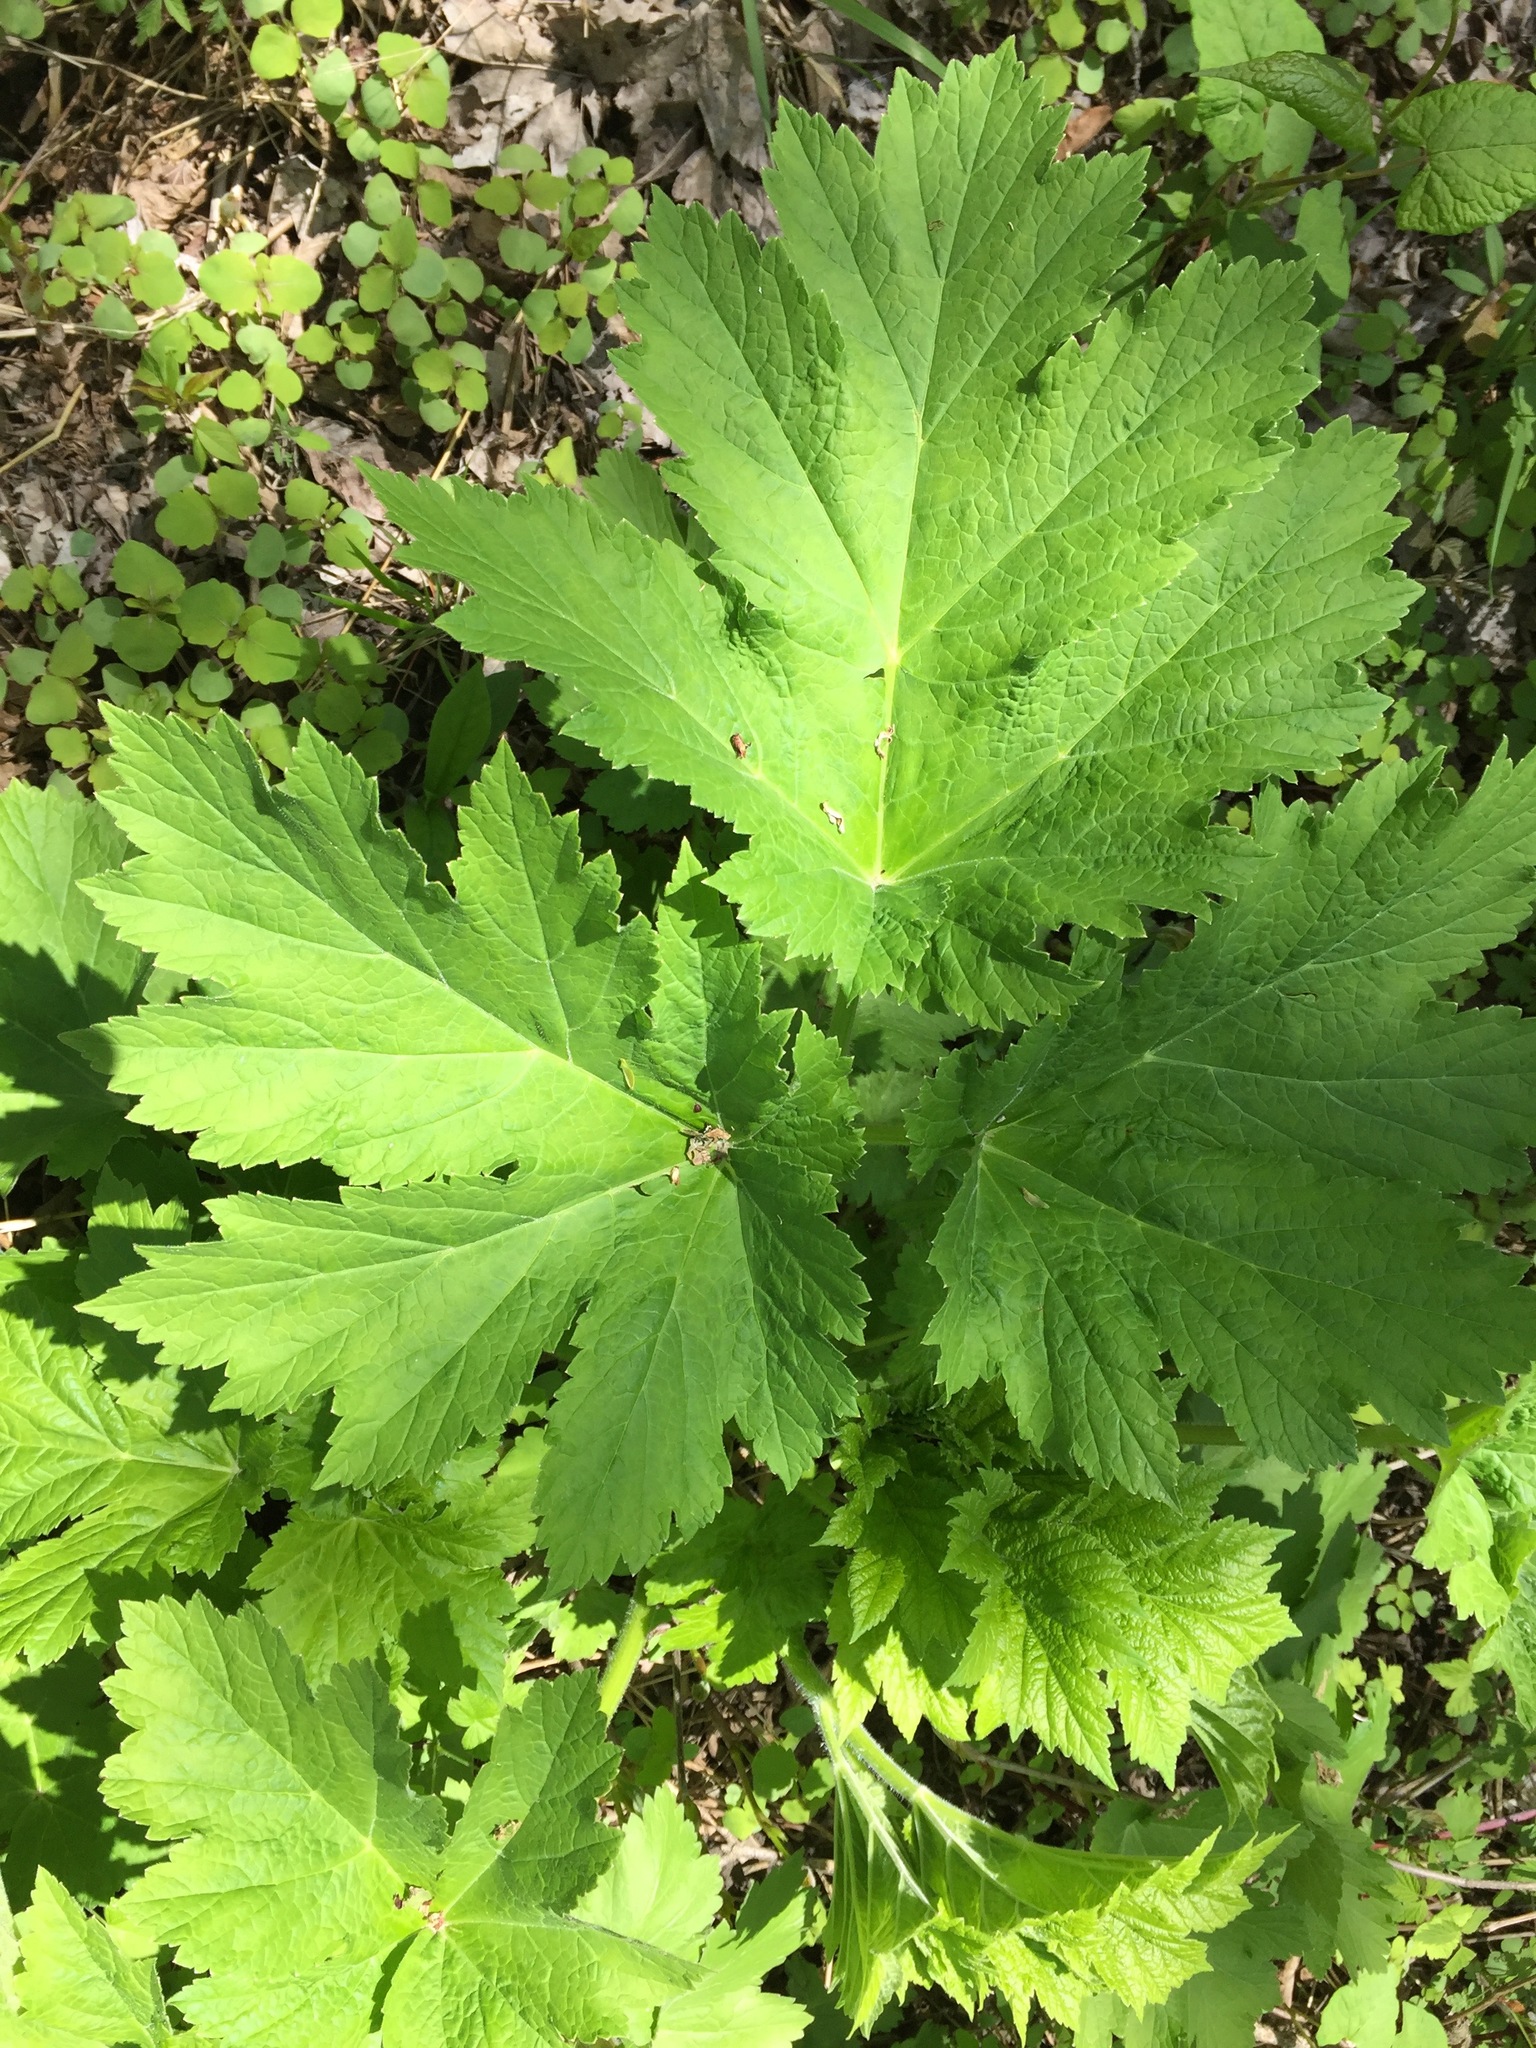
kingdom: Plantae
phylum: Tracheophyta
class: Magnoliopsida
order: Apiales
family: Apiaceae
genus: Heracleum
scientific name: Heracleum maximum
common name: American cow parsnip
